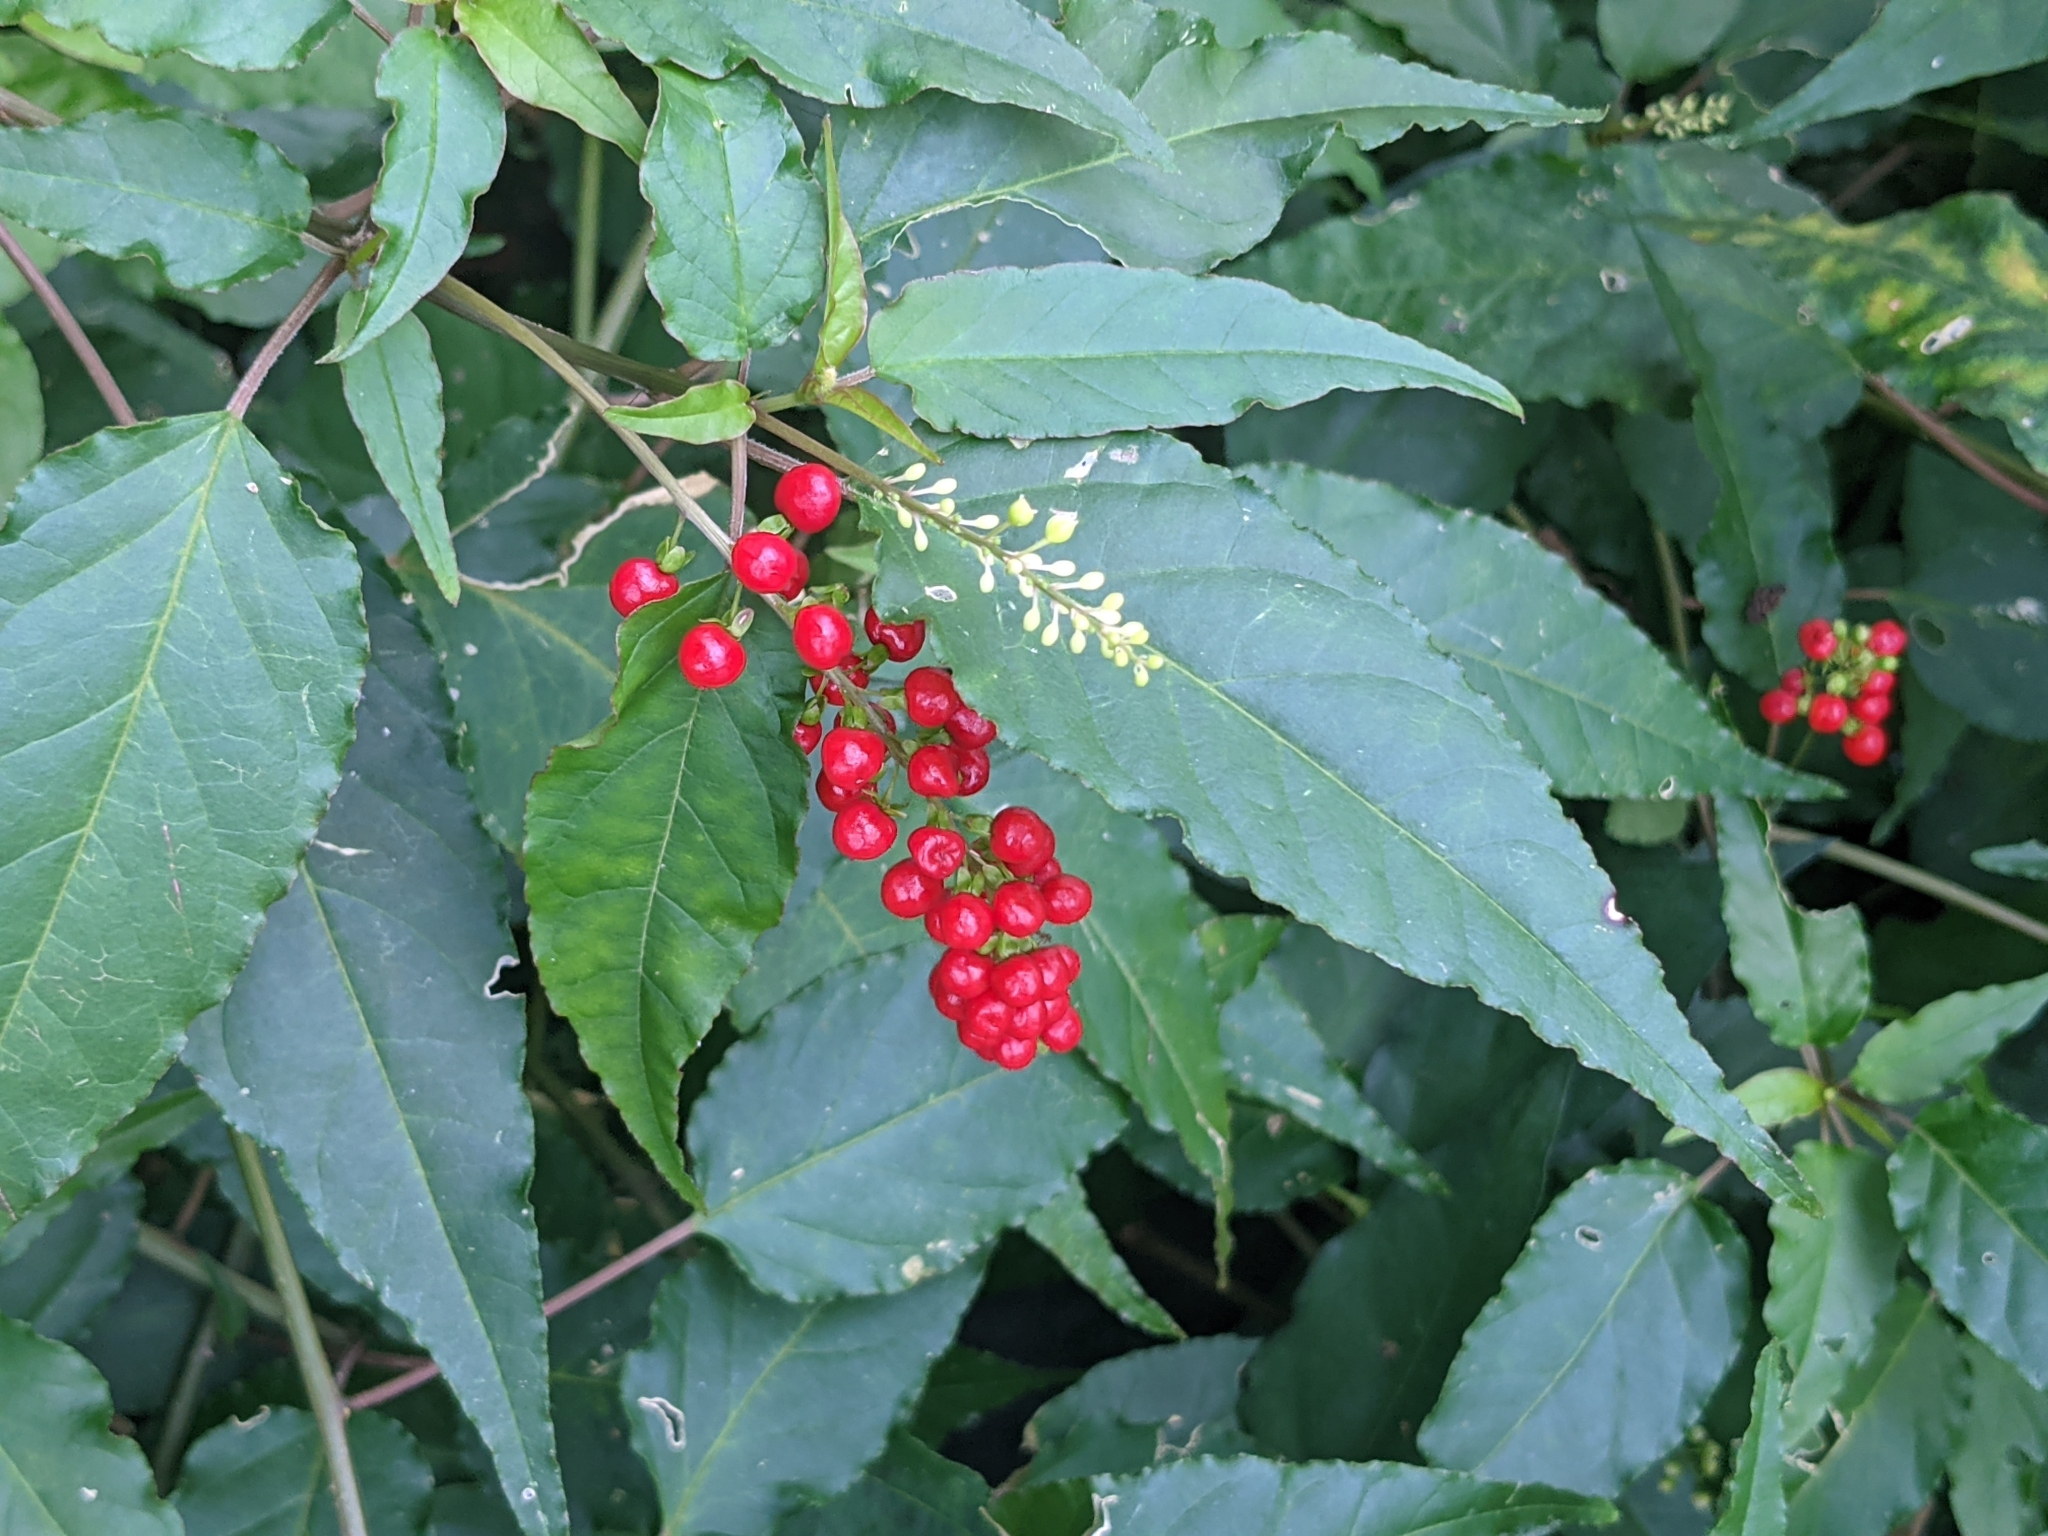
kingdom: Plantae
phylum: Tracheophyta
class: Magnoliopsida
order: Caryophyllales
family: Phytolaccaceae
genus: Rivina
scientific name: Rivina humilis
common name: Rougeplant
